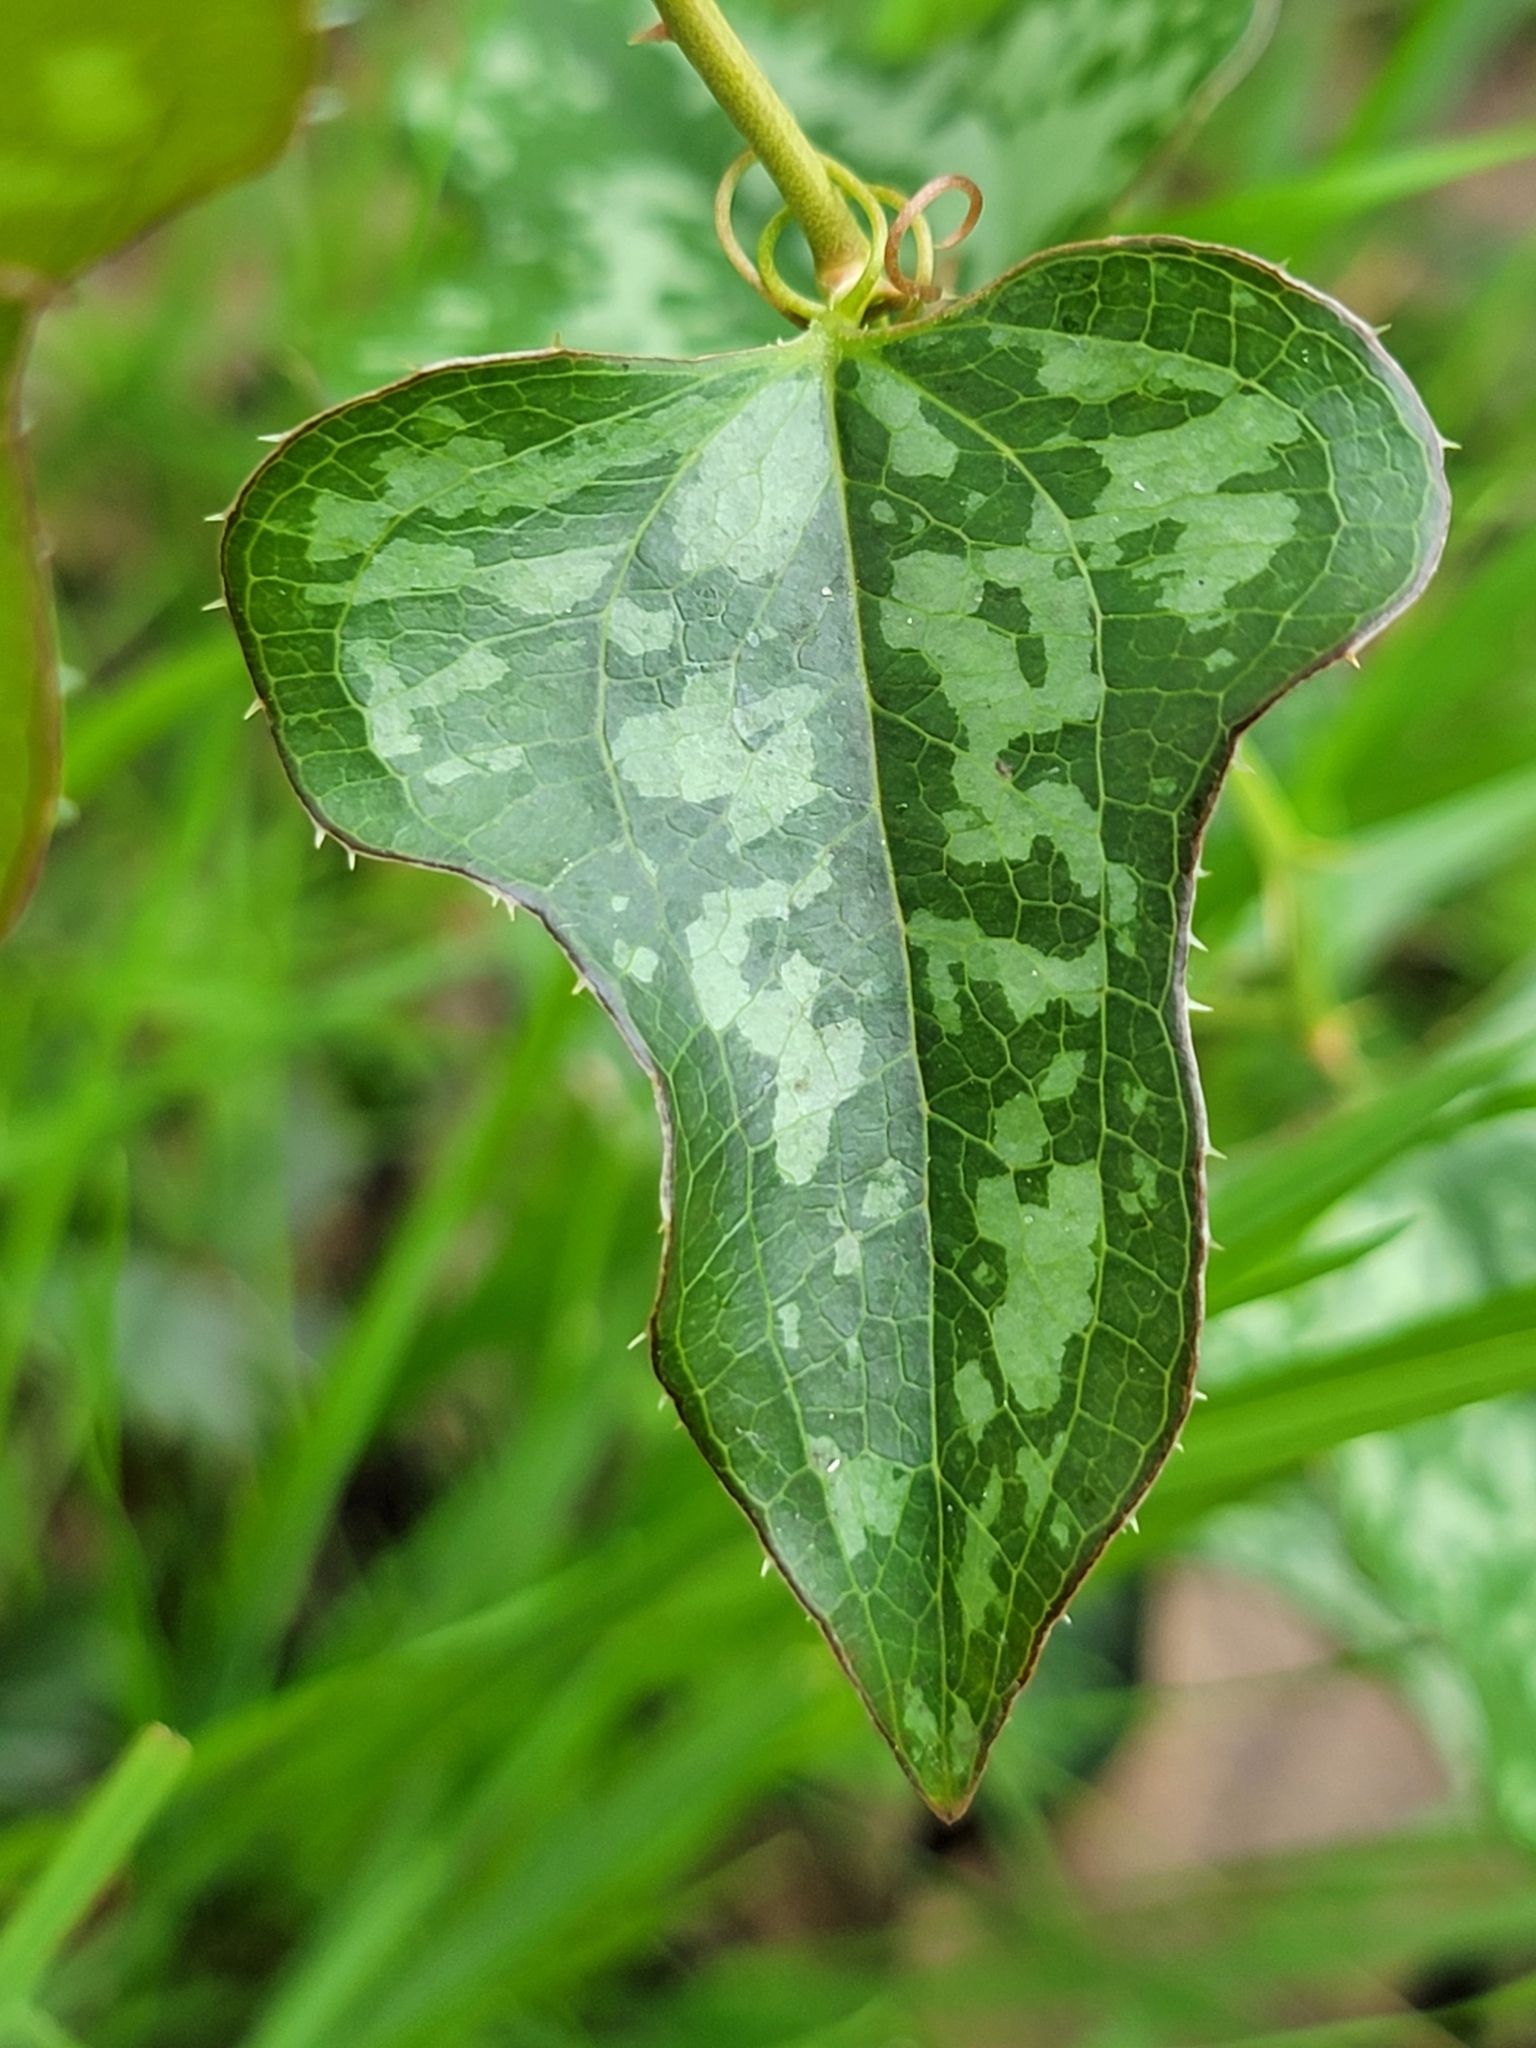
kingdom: Plantae
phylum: Tracheophyta
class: Liliopsida
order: Liliales
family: Smilacaceae
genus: Smilax
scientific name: Smilax bona-nox
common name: Catbrier
